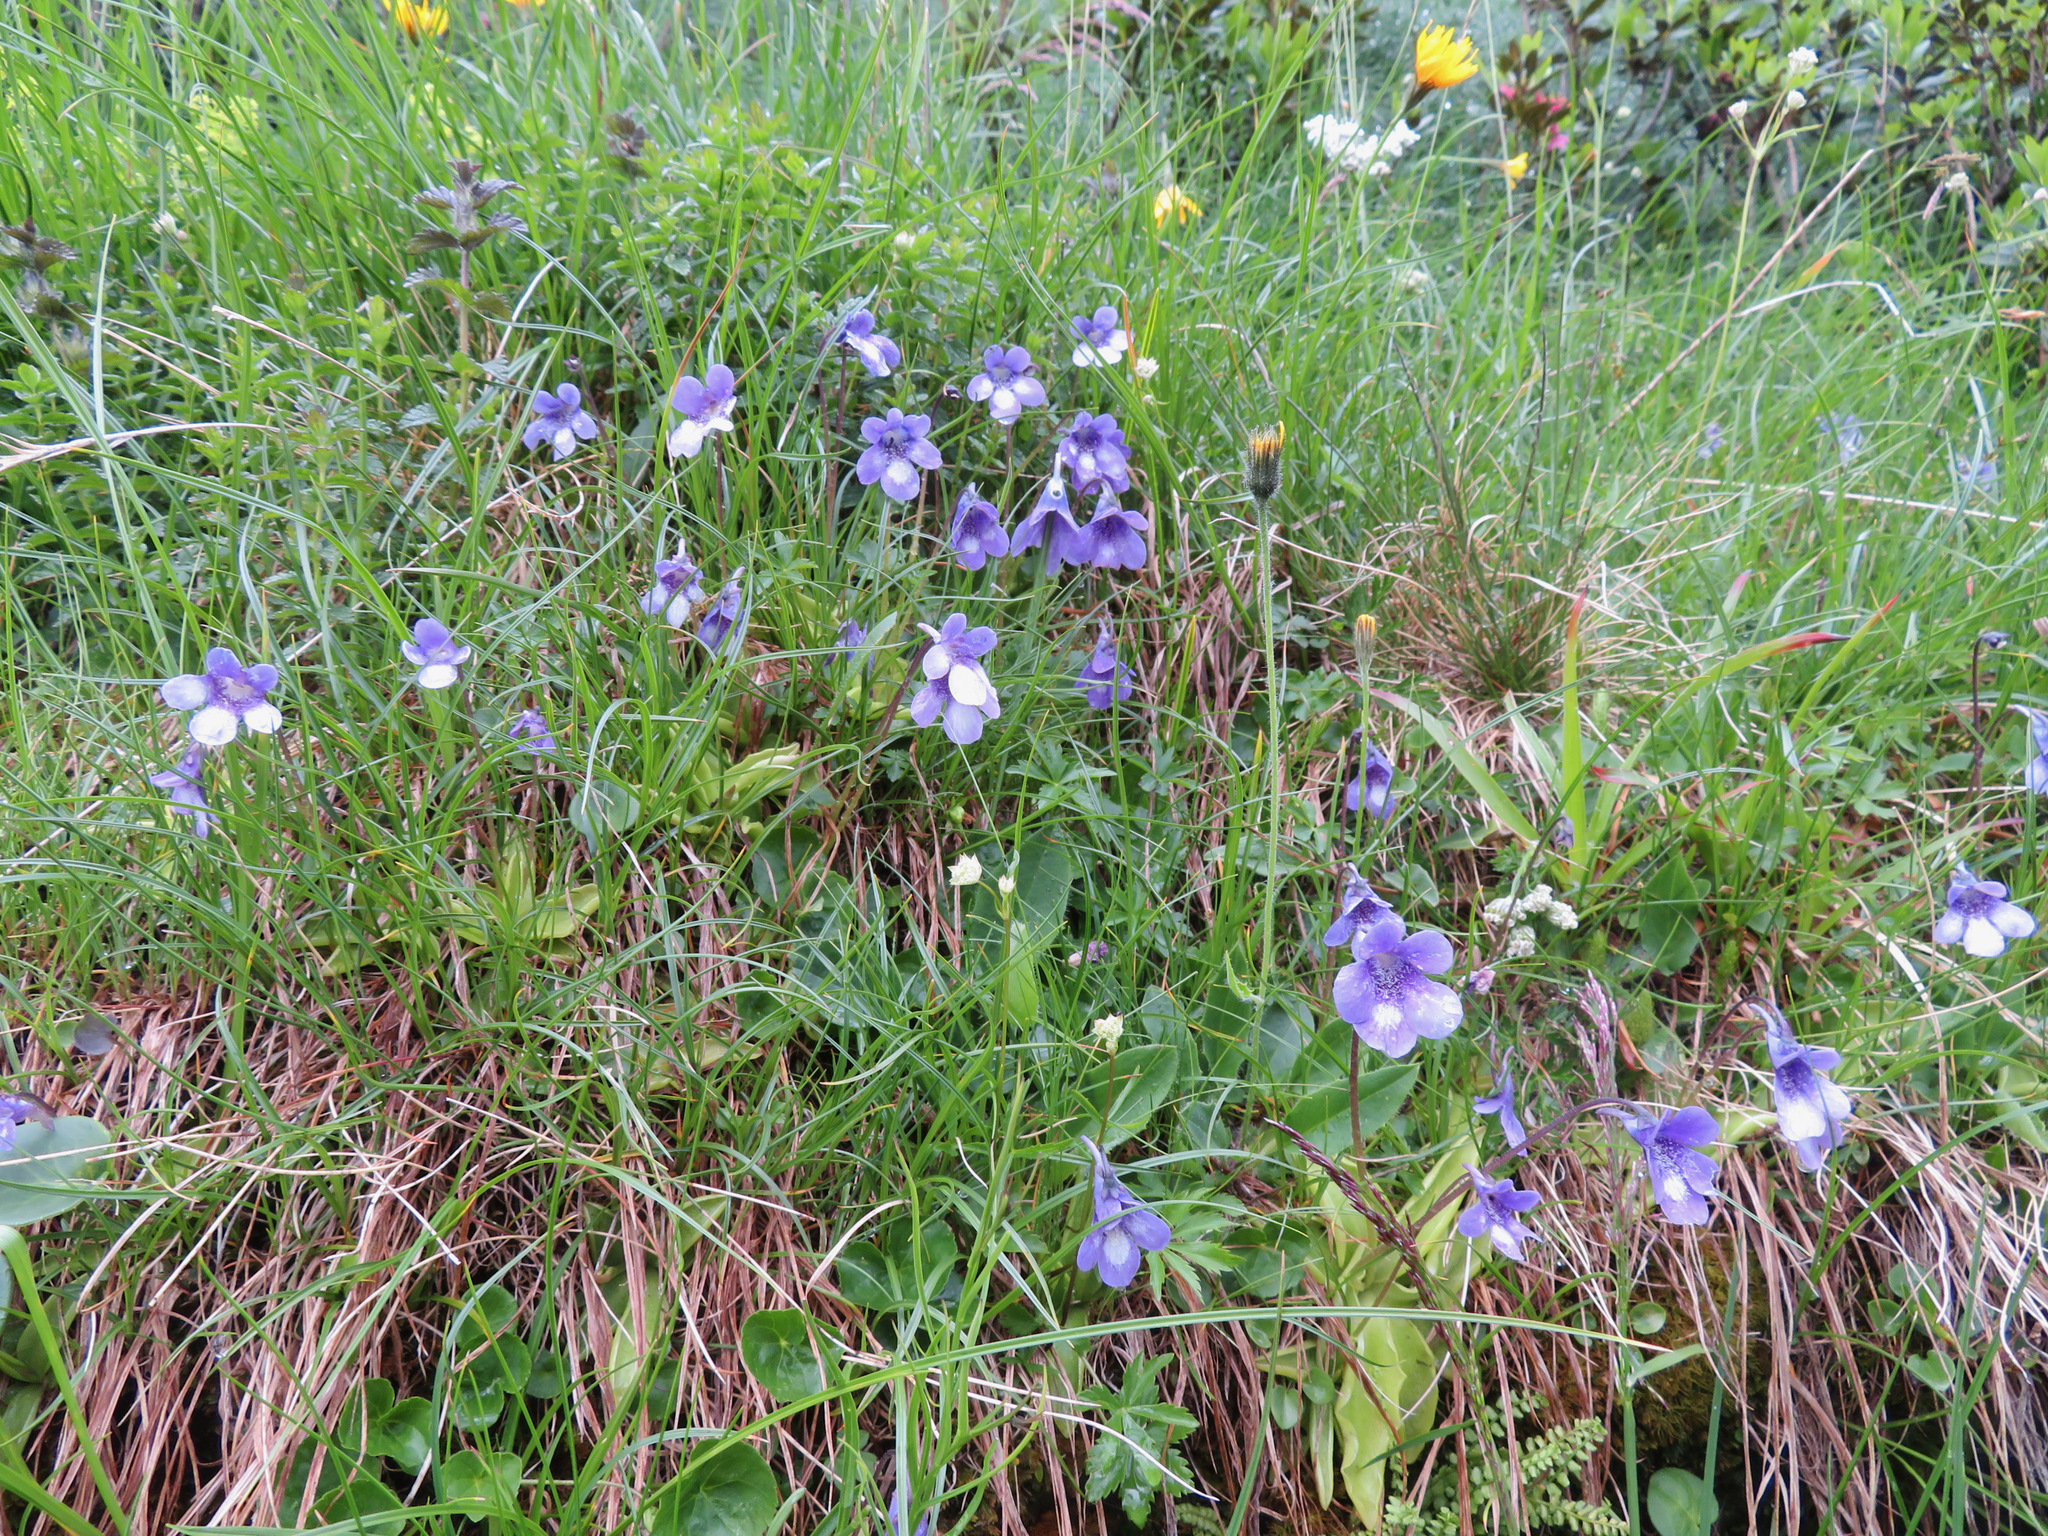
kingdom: Plantae
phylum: Tracheophyta
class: Magnoliopsida
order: Lamiales
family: Lentibulariaceae
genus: Pinguicula
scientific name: Pinguicula leptoceras
